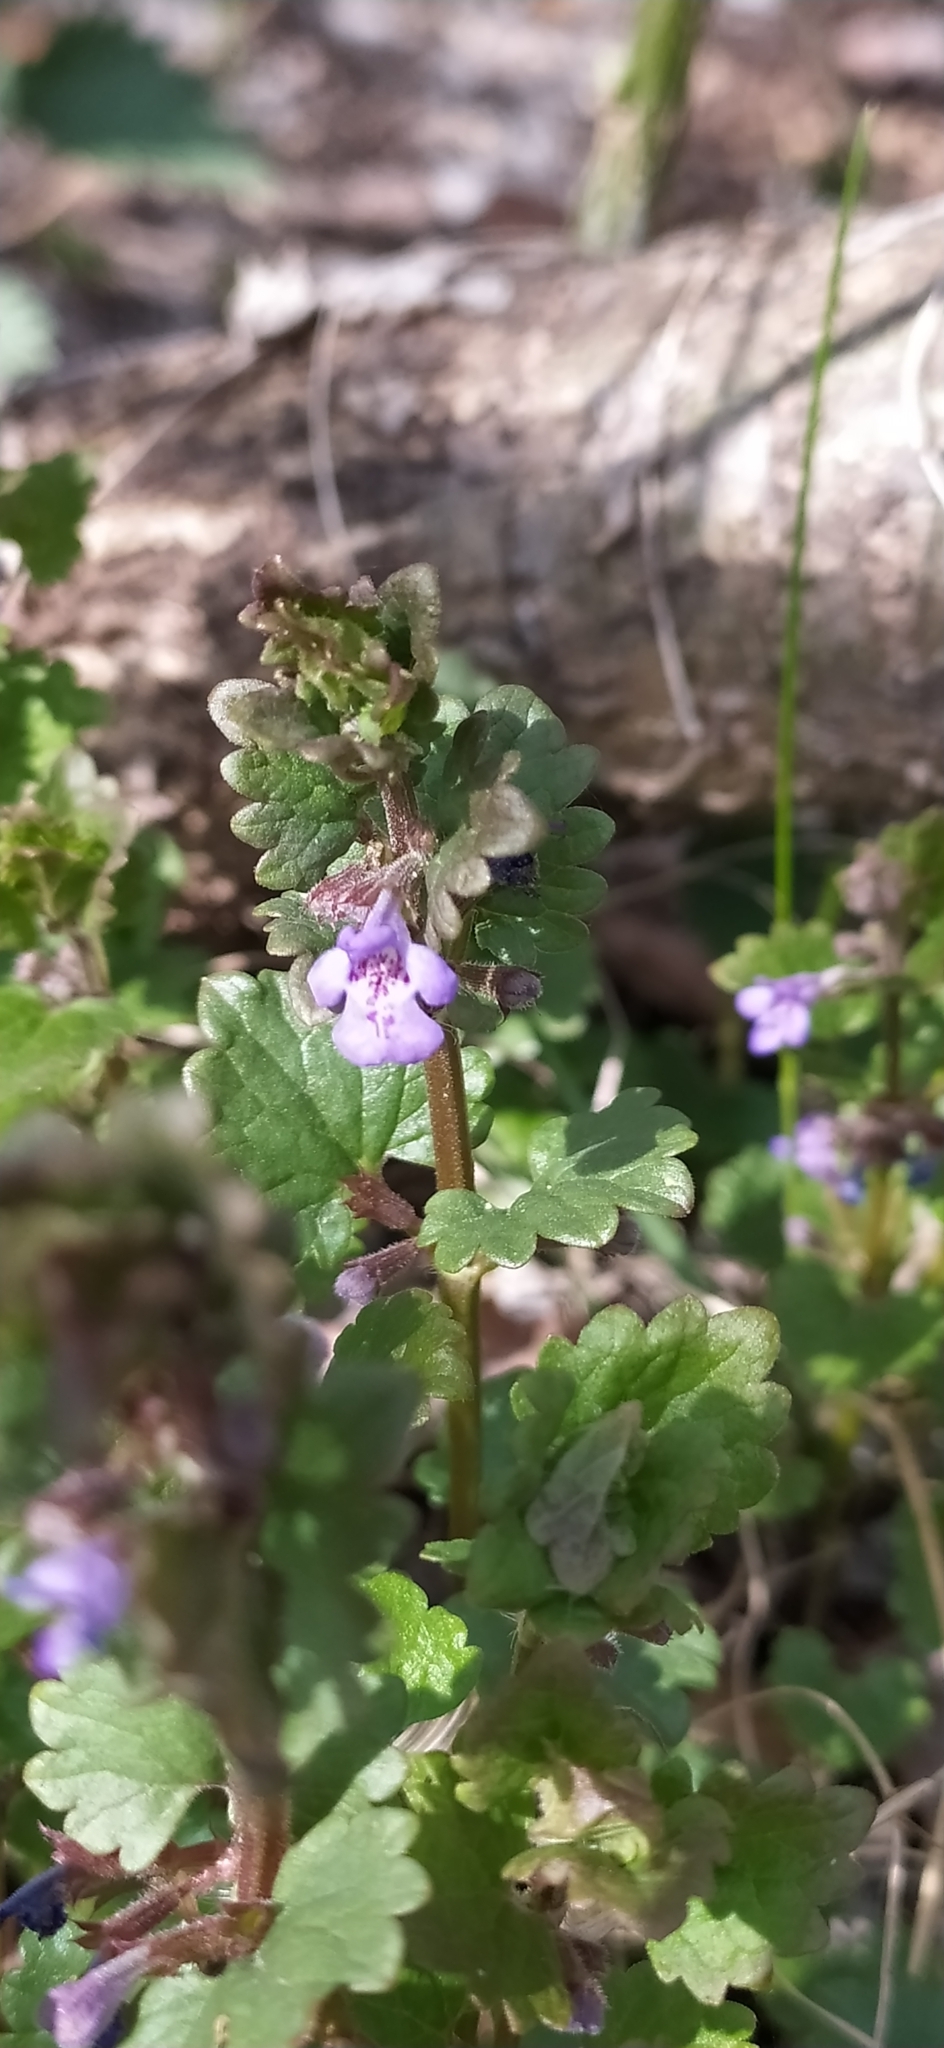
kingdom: Plantae
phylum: Tracheophyta
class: Magnoliopsida
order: Lamiales
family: Lamiaceae
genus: Glechoma
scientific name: Glechoma hederacea
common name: Ground ivy
